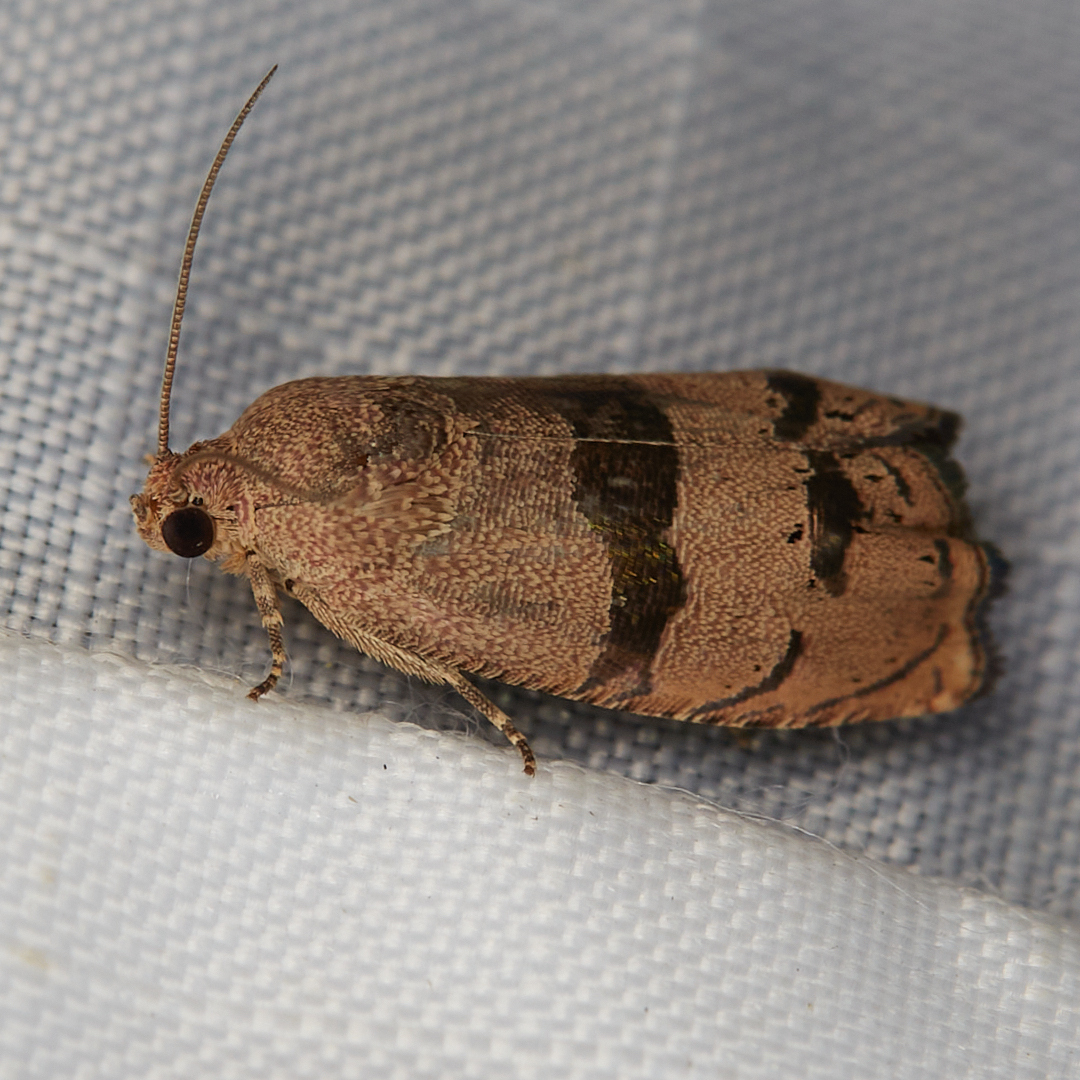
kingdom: Animalia
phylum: Arthropoda
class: Insecta
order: Lepidoptera
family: Tortricidae
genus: Cydia
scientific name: Cydia latiferreana
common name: Filbertworm moth
